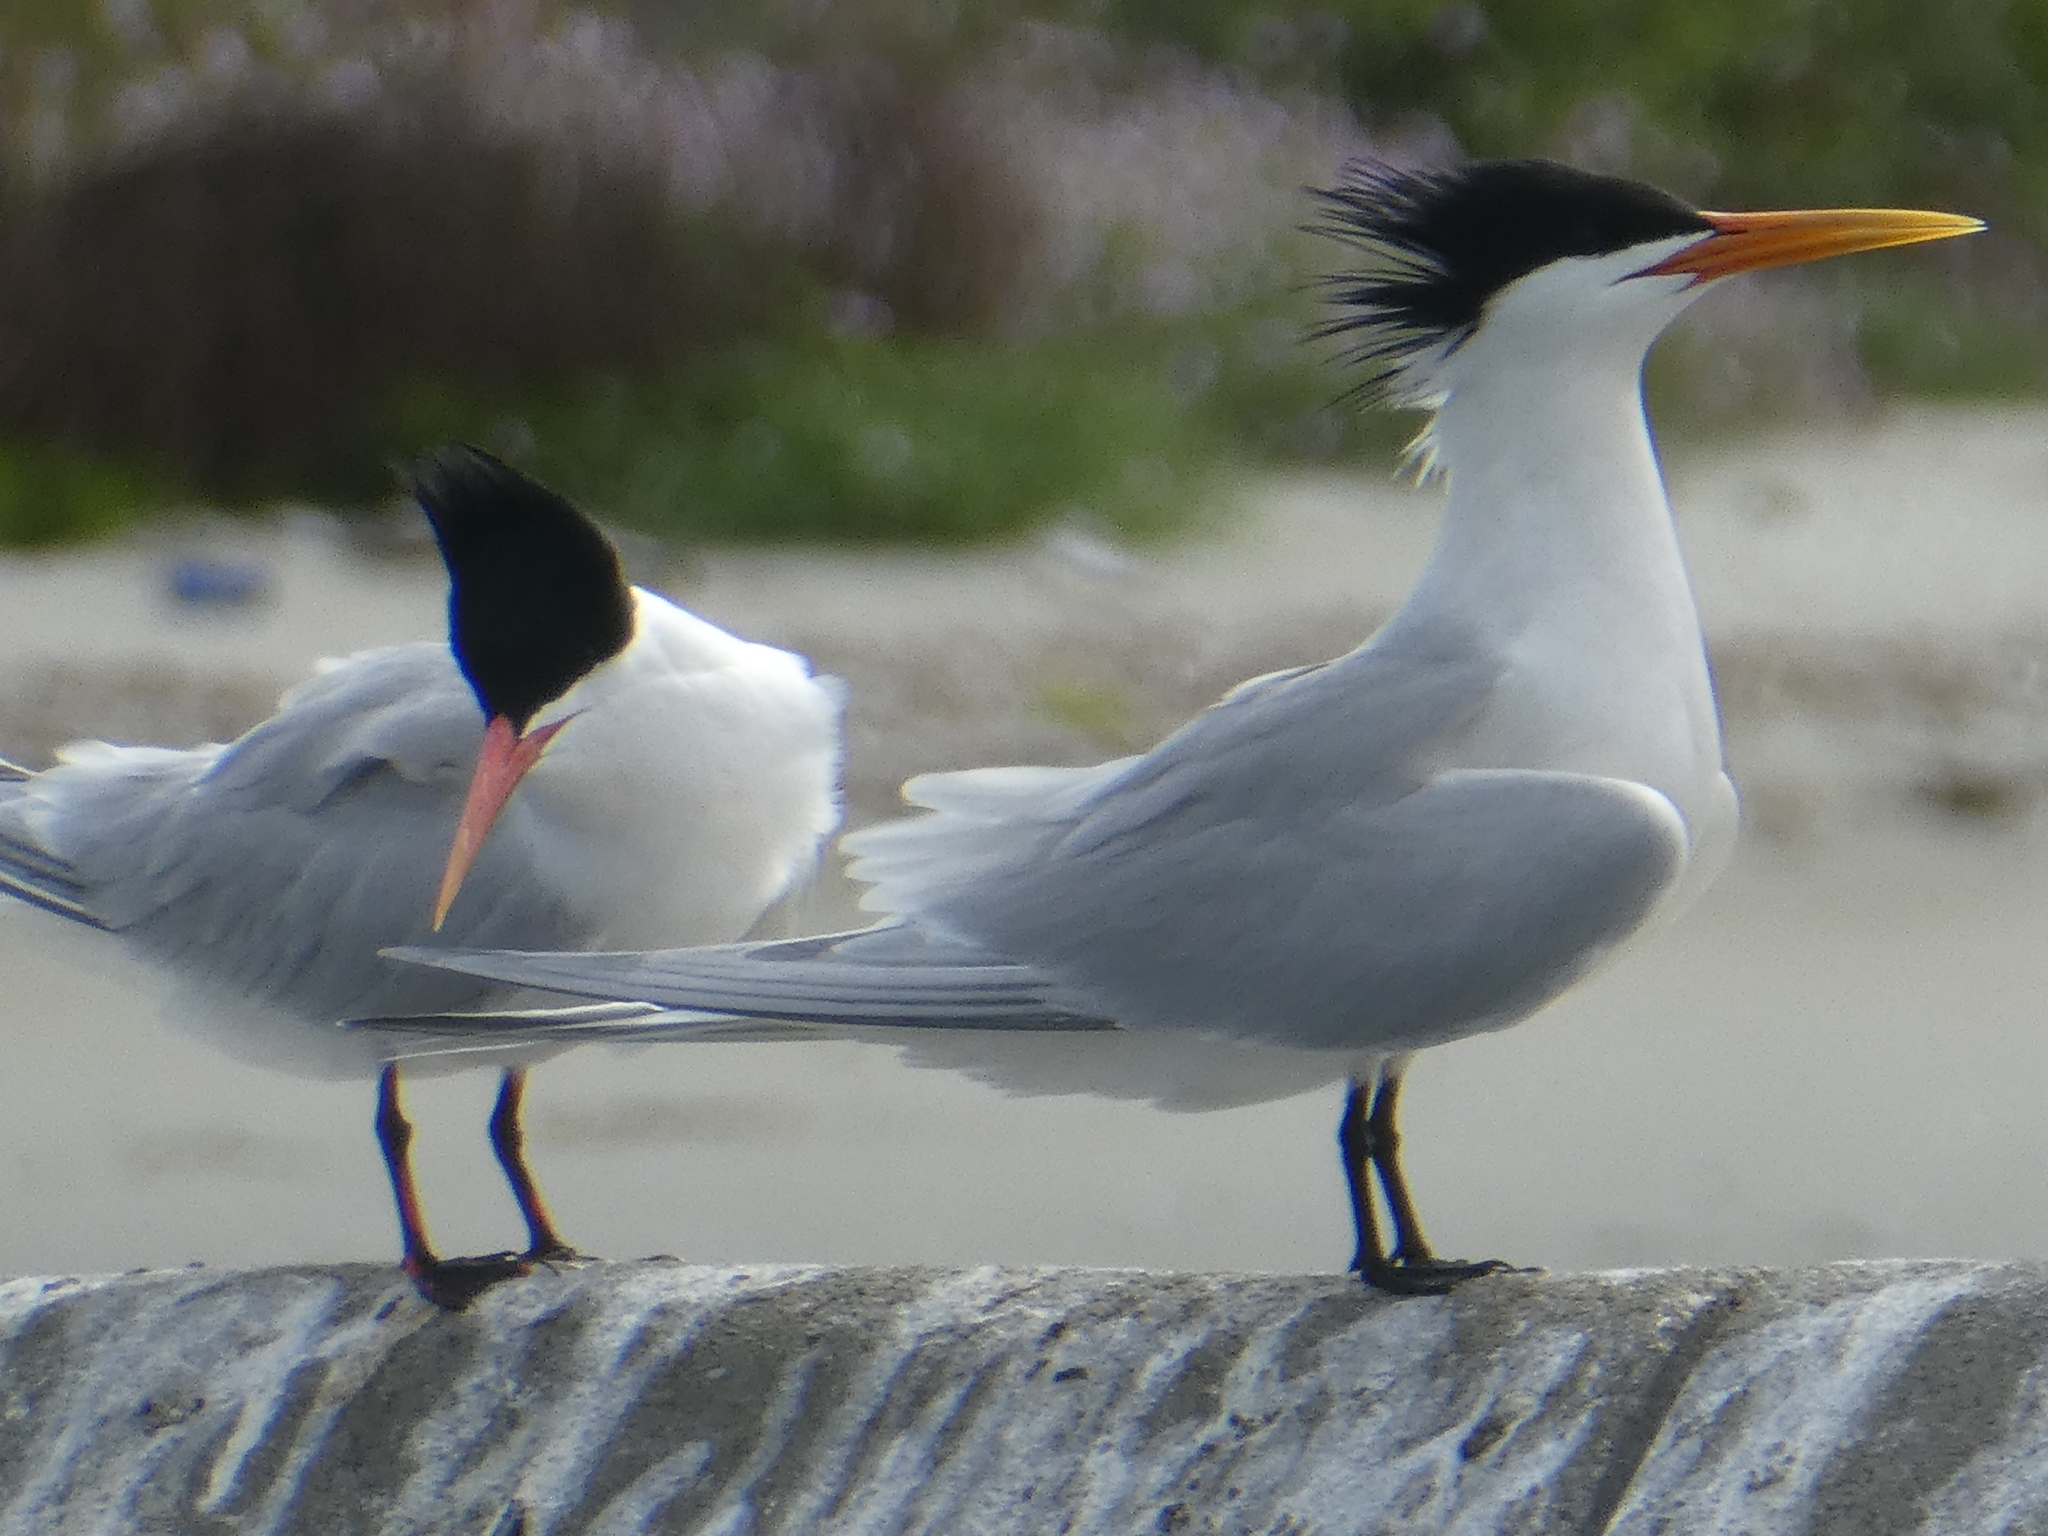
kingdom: Animalia
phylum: Chordata
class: Aves
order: Charadriiformes
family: Laridae
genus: Thalasseus
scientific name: Thalasseus elegans
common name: Elegant tern
